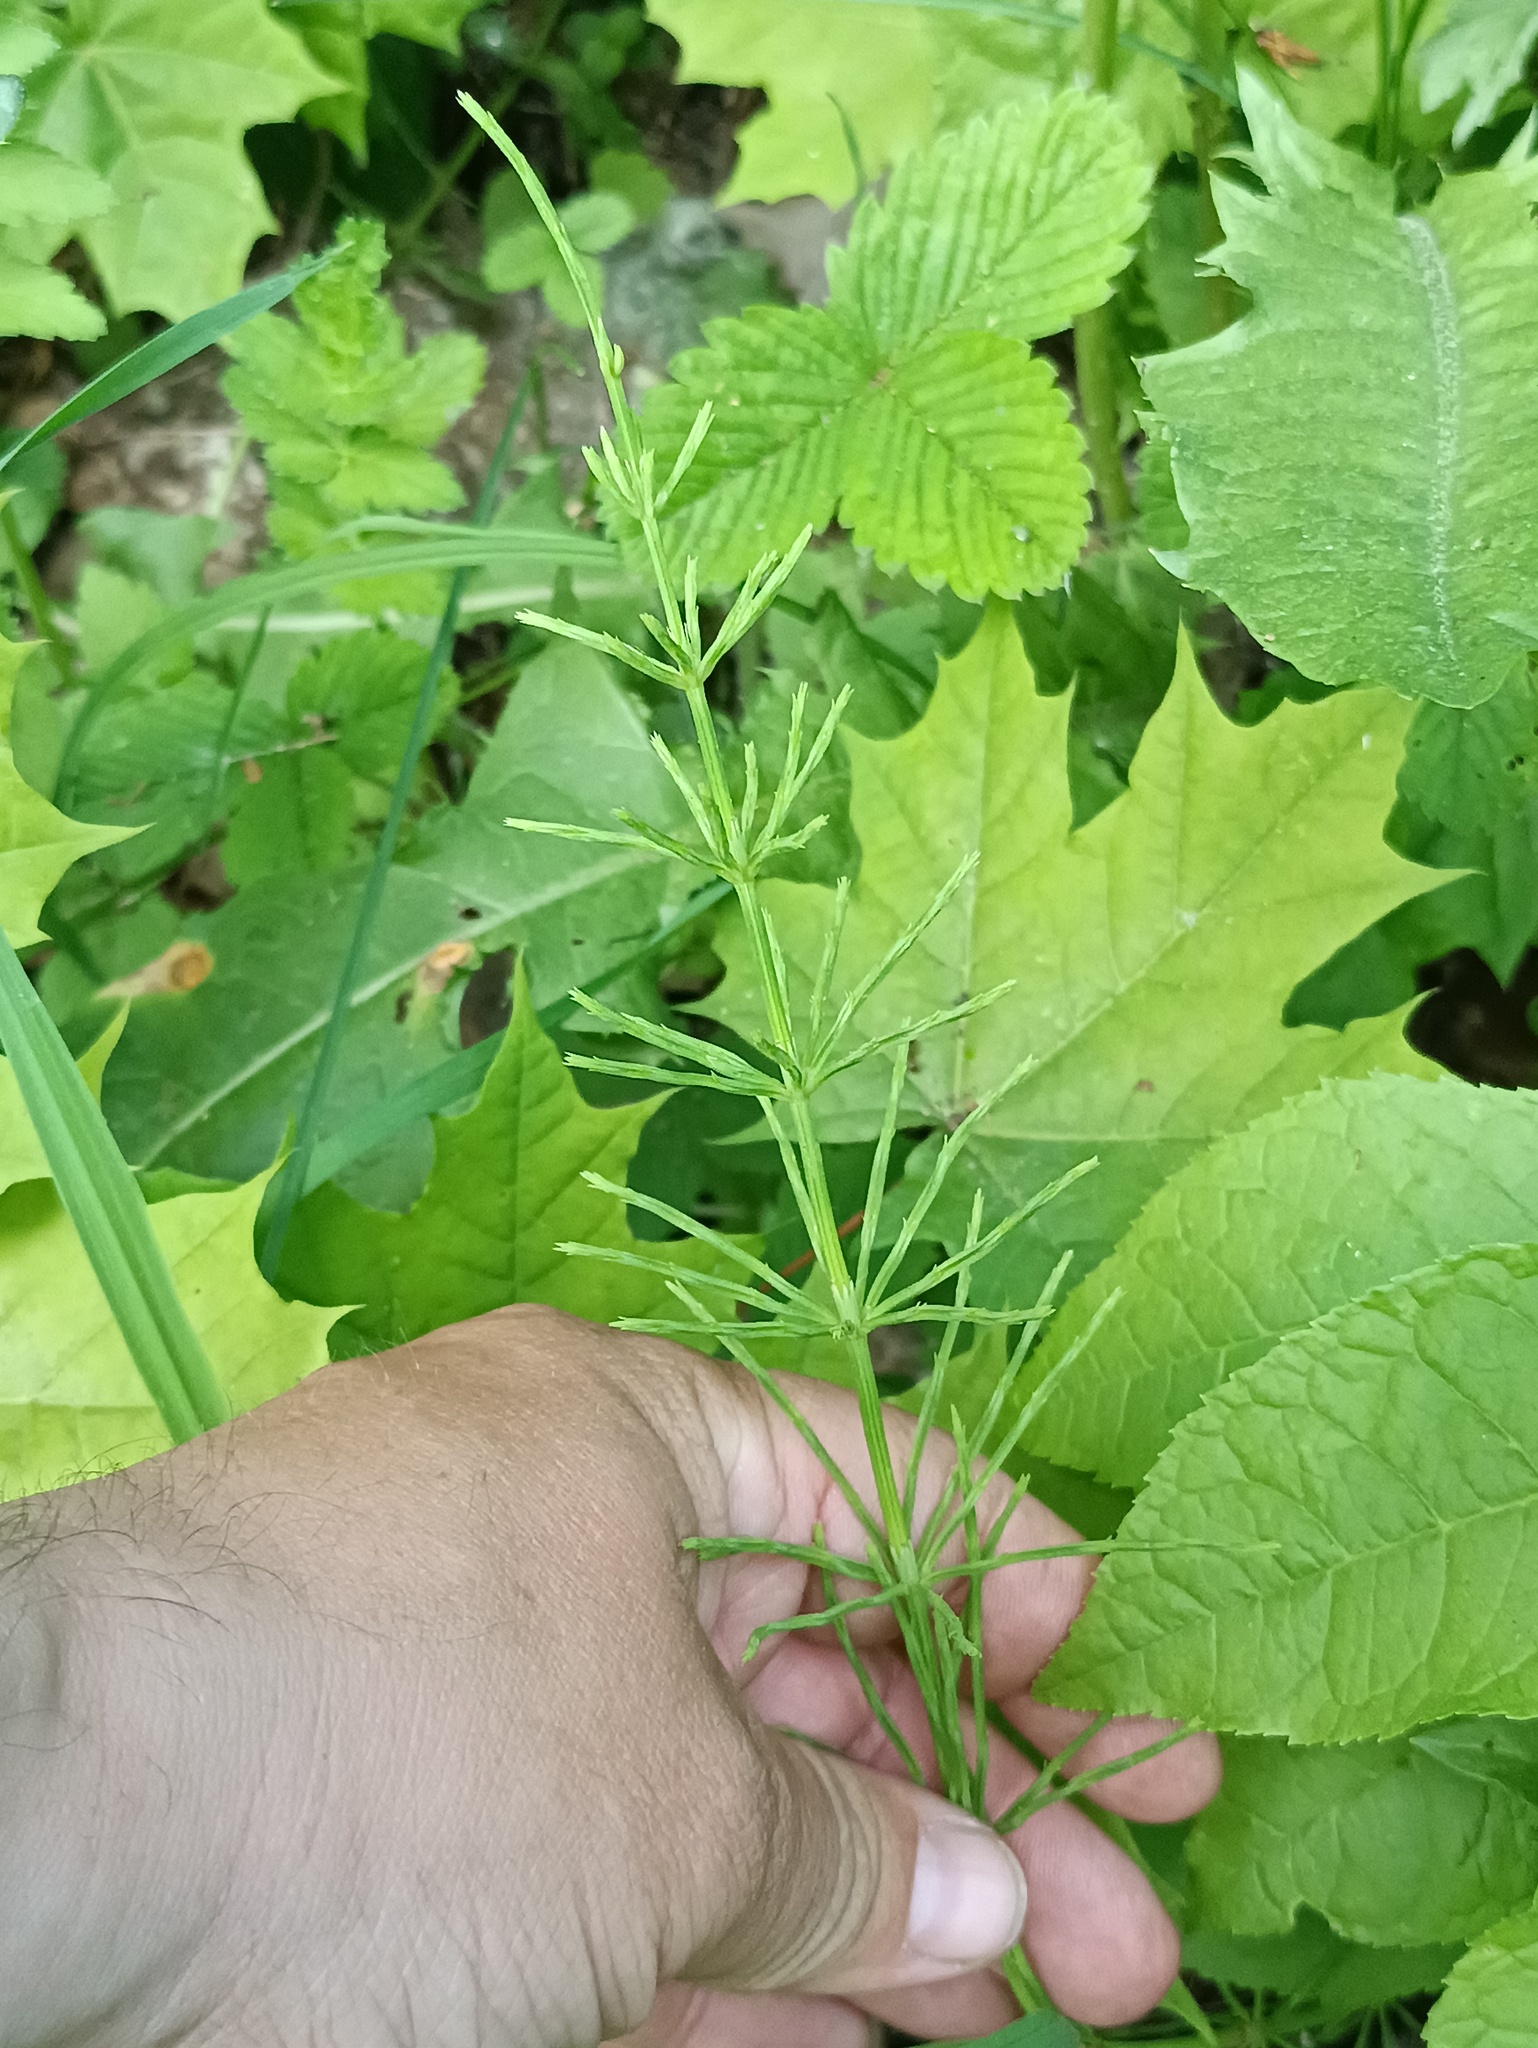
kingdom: Plantae
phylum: Tracheophyta
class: Polypodiopsida
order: Equisetales
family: Equisetaceae
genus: Equisetum
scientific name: Equisetum arvense
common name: Field horsetail
